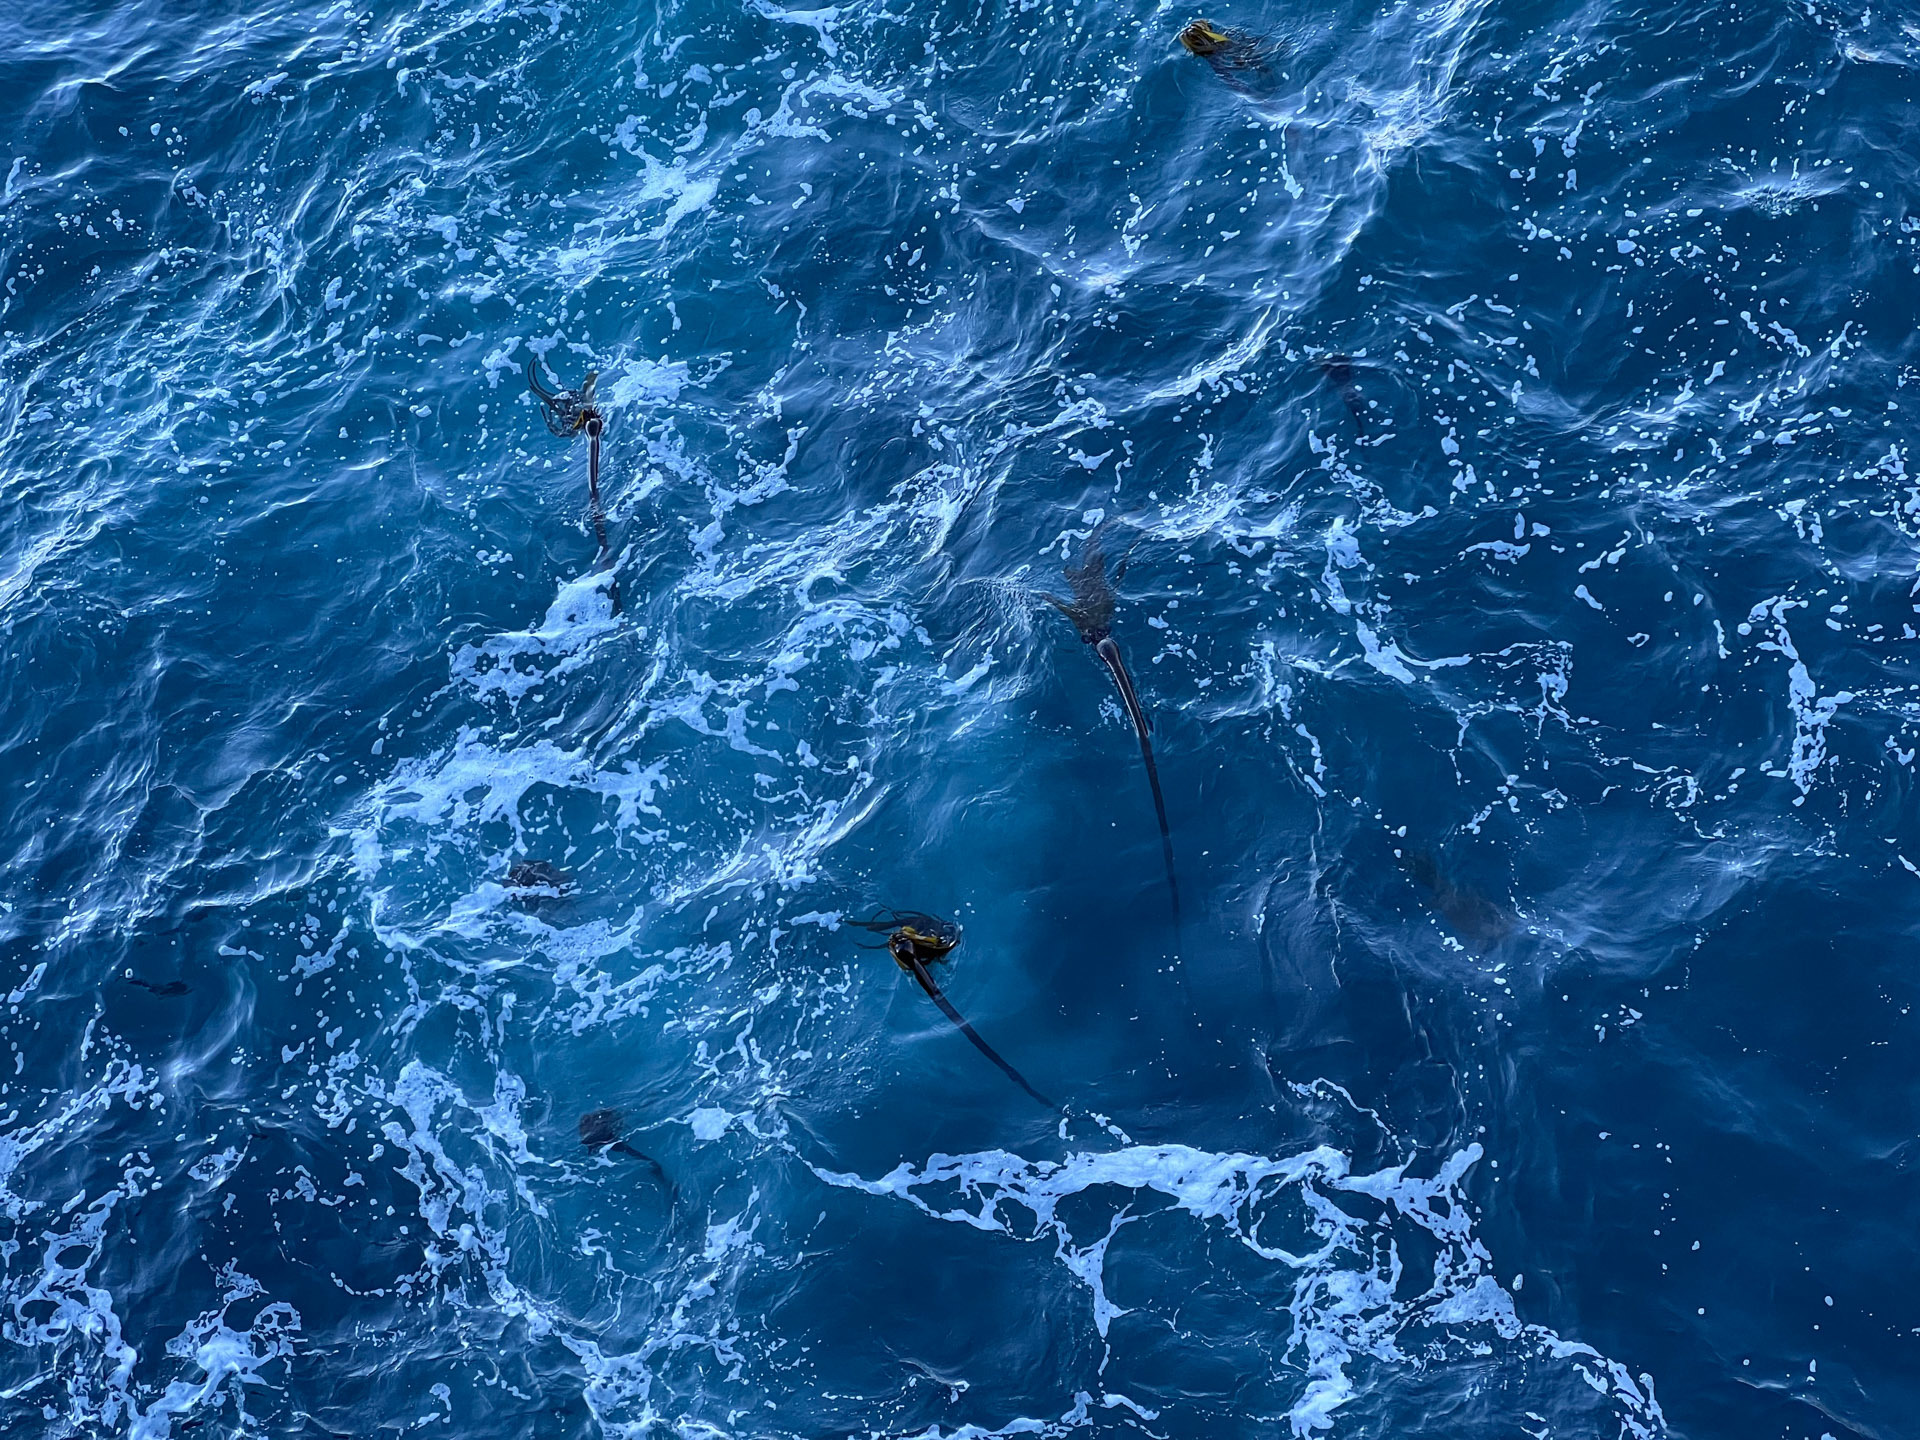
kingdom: Chromista
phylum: Ochrophyta
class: Phaeophyceae
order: Laminariales
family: Laminariaceae
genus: Nereocystis
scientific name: Nereocystis luetkeana
